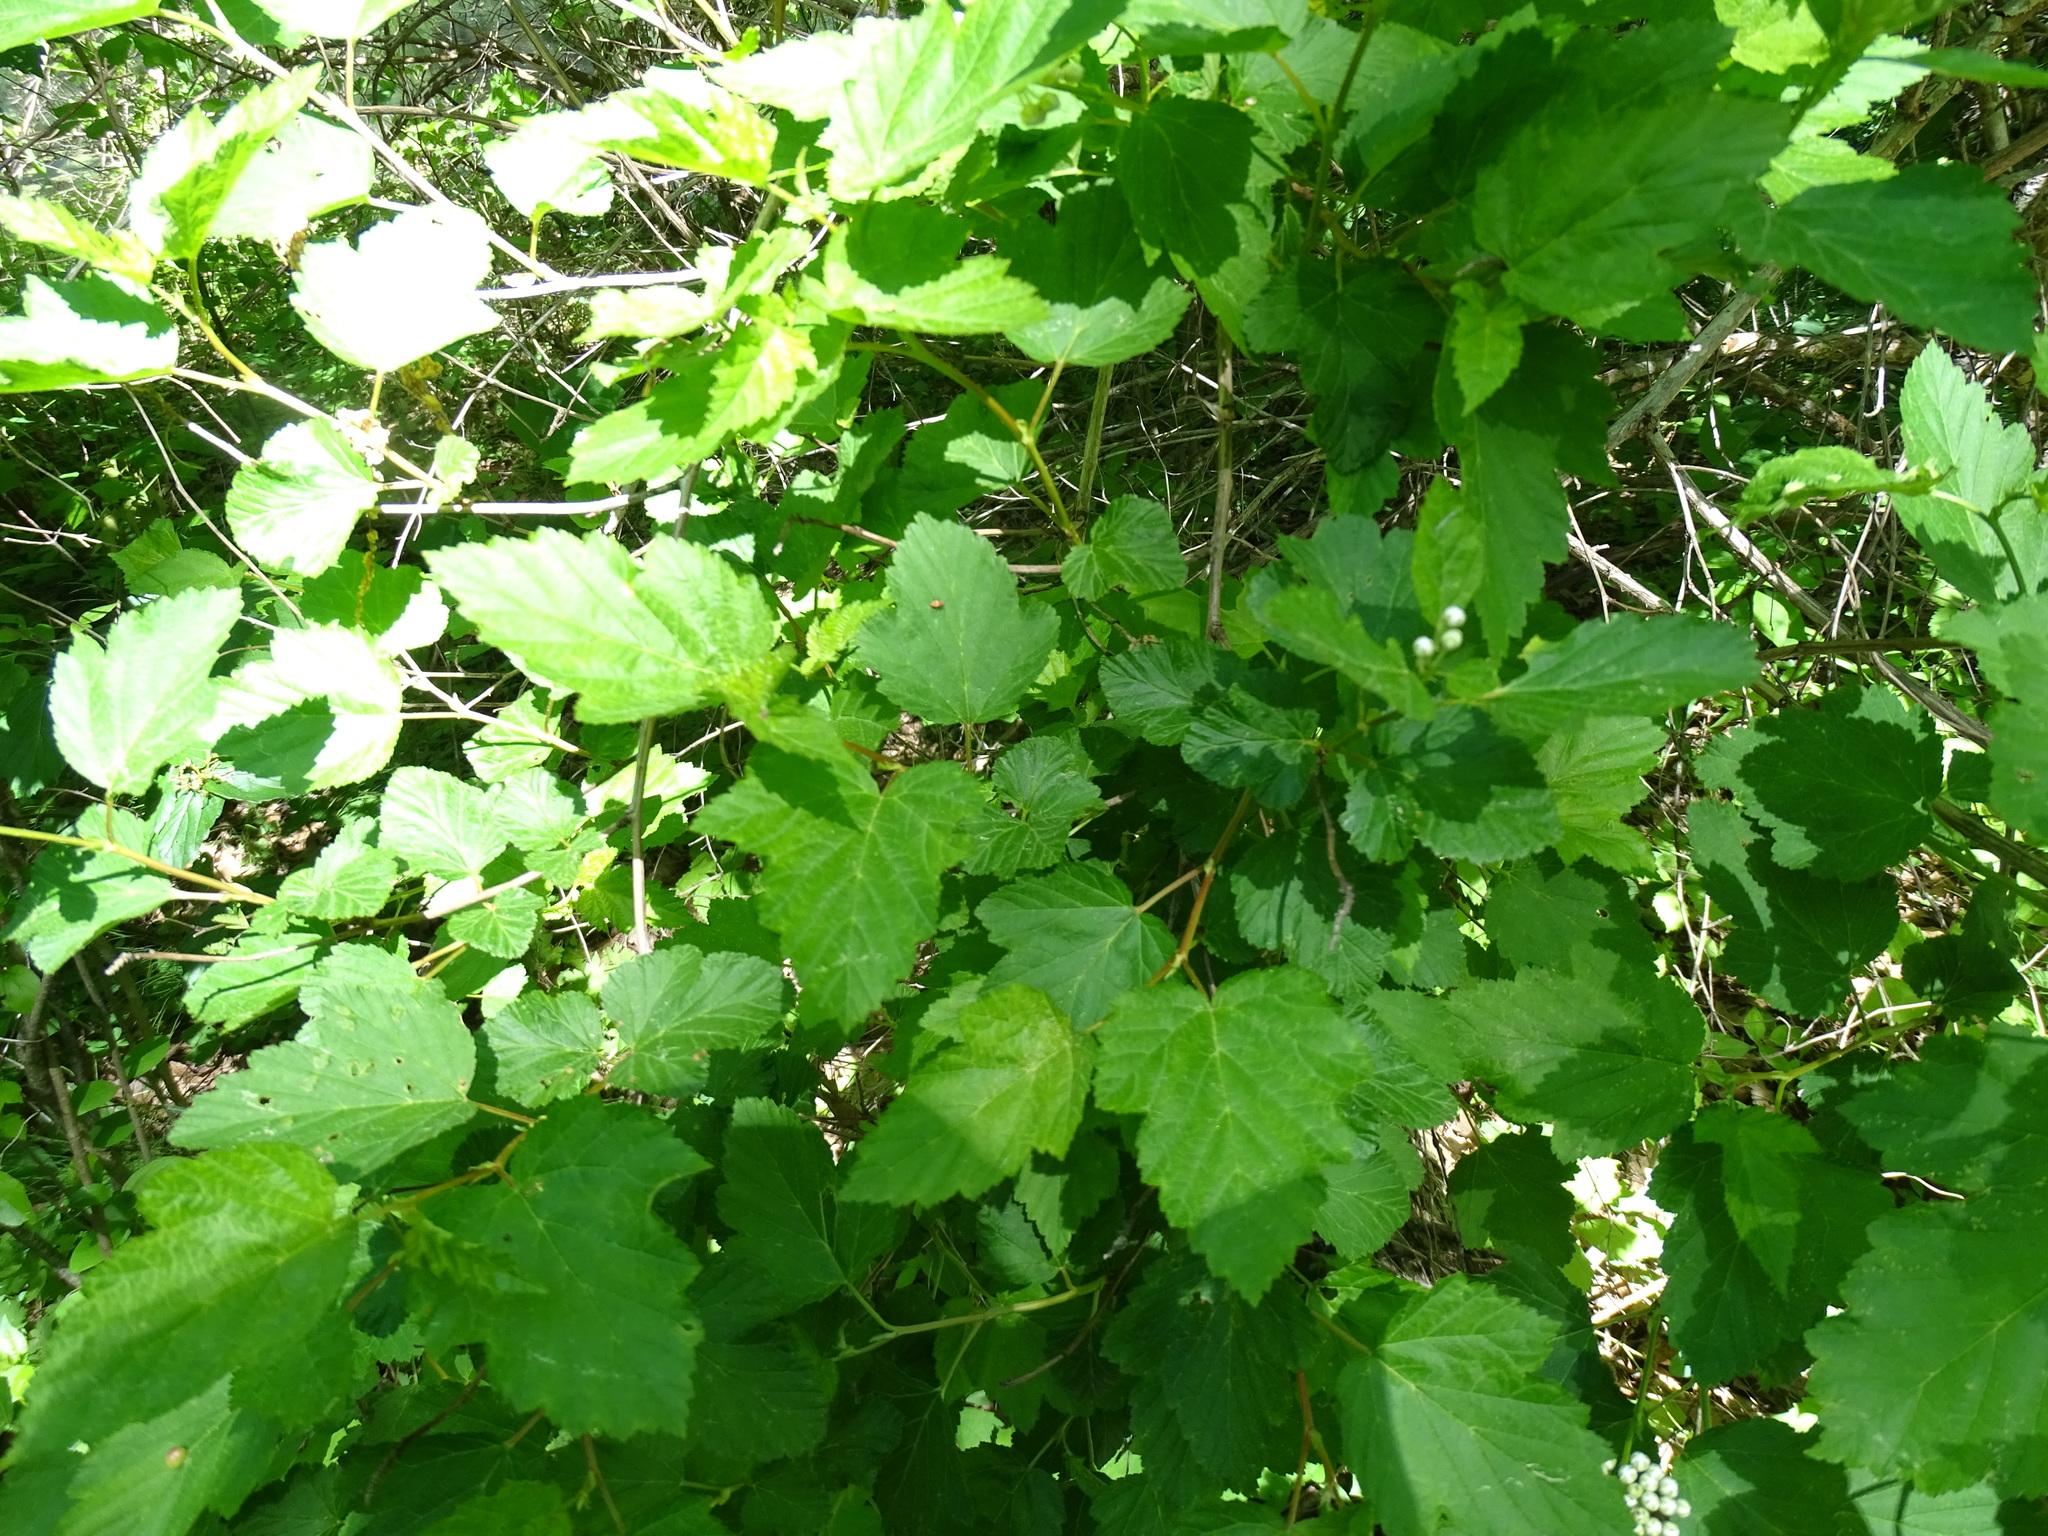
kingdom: Plantae
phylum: Tracheophyta
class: Magnoliopsida
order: Rosales
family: Rosaceae
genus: Physocarpus
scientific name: Physocarpus opulifolius
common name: Ninebark
